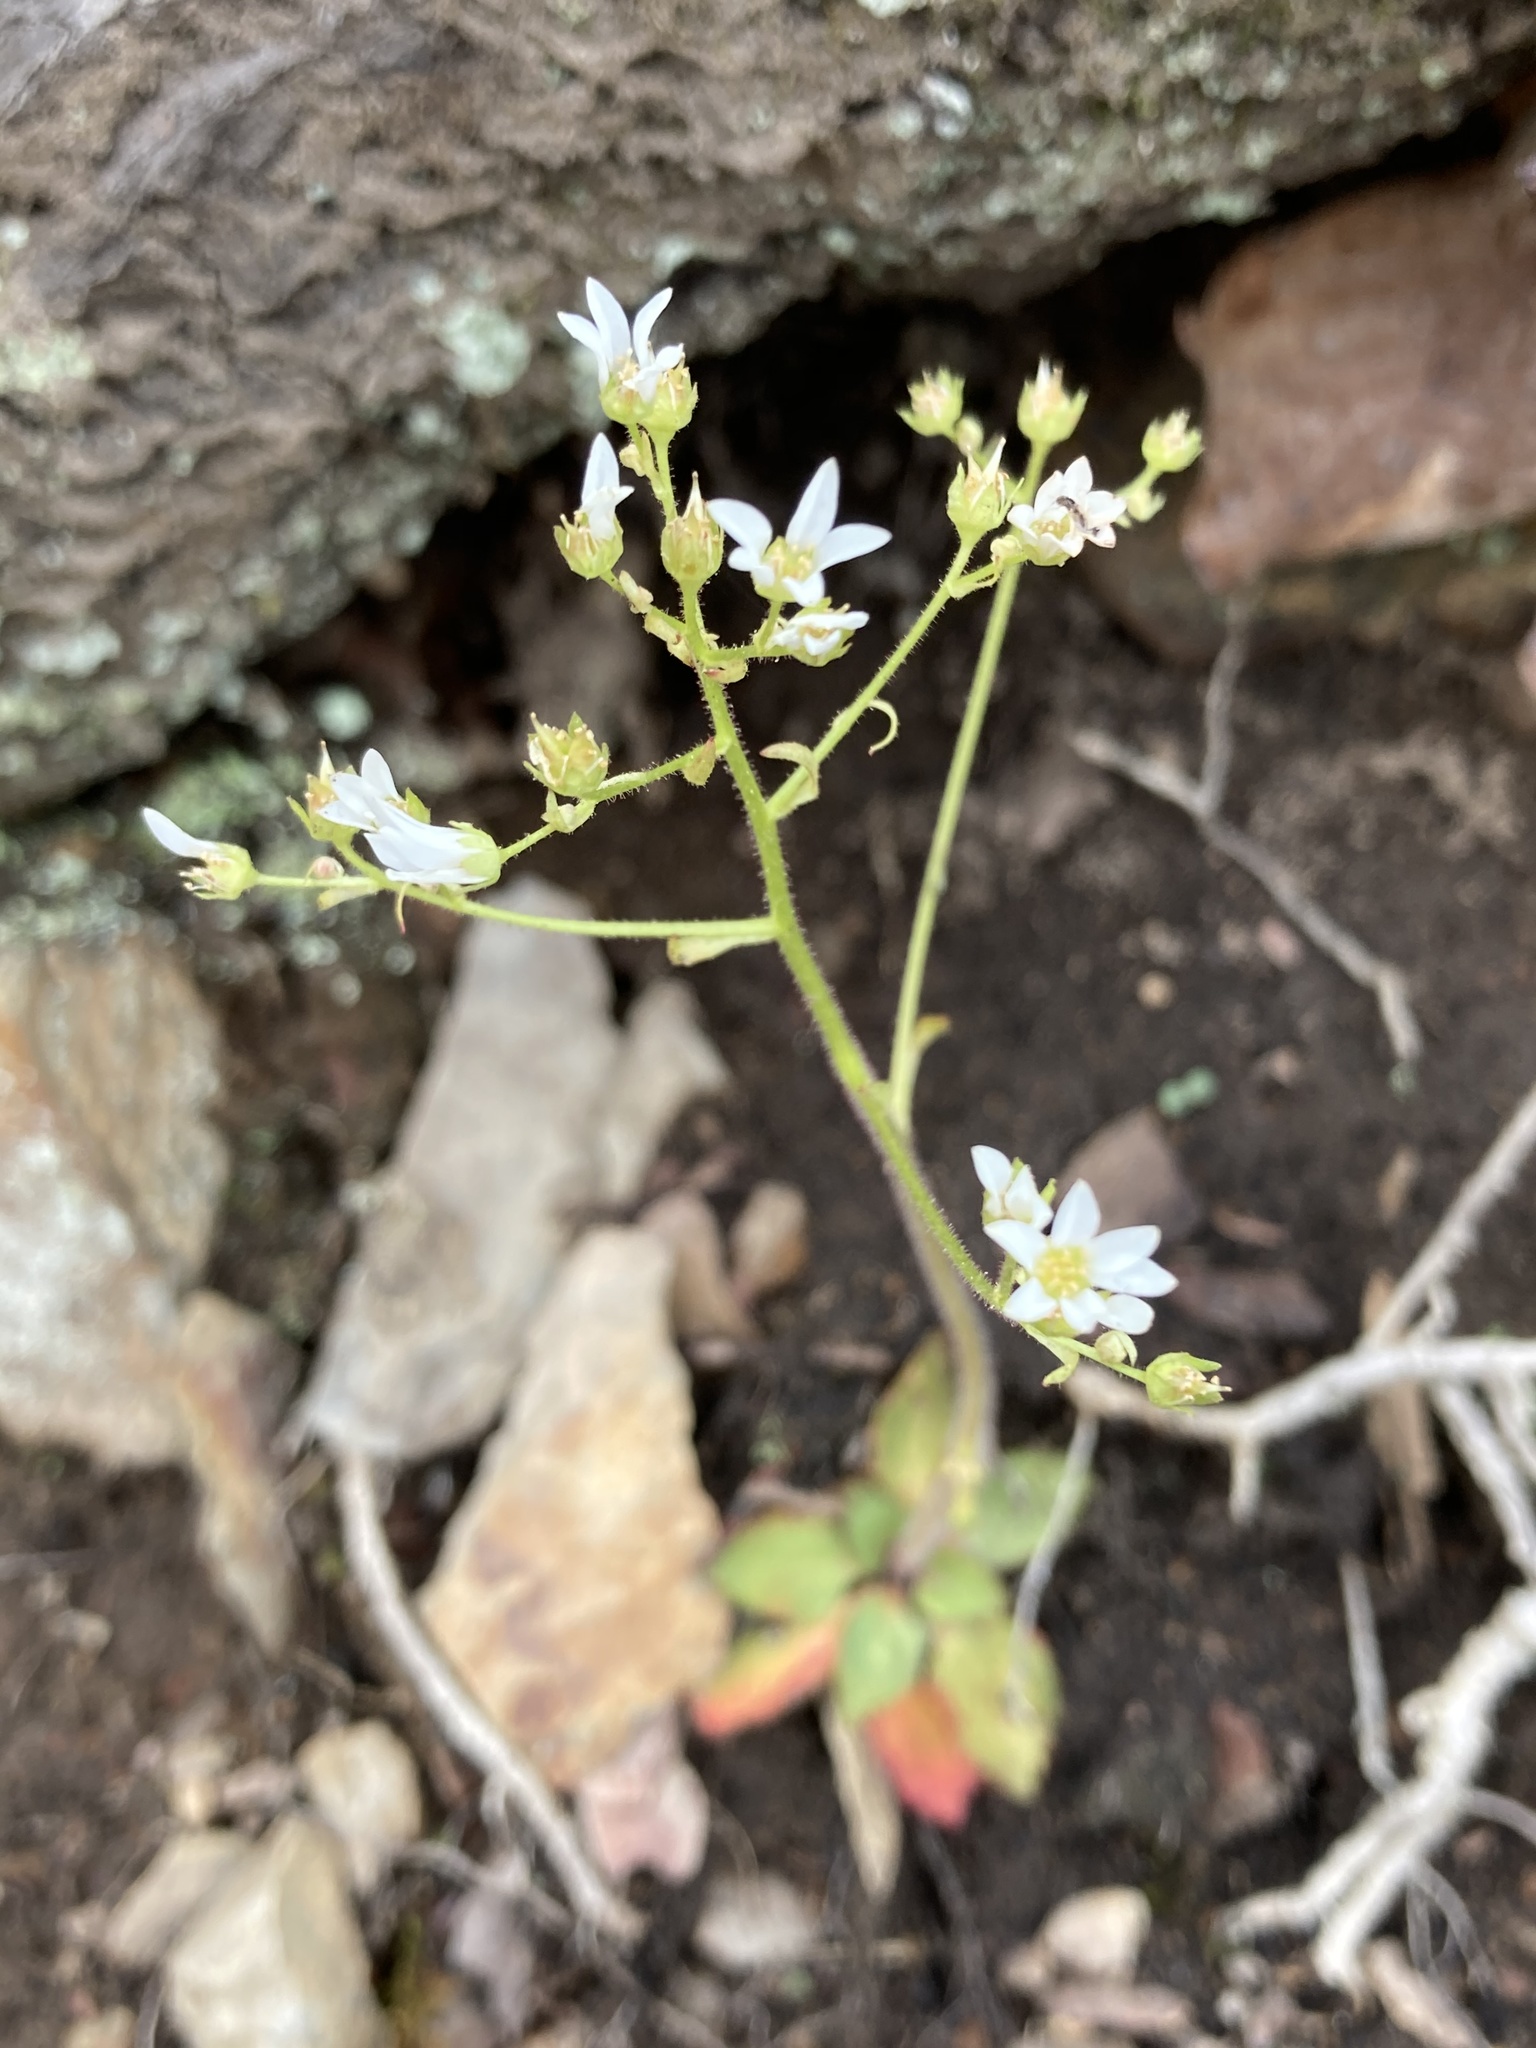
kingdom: Plantae
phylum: Tracheophyta
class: Magnoliopsida
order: Saxifragales
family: Saxifragaceae
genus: Micranthes
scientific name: Micranthes virginiensis
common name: Early saxifrage
